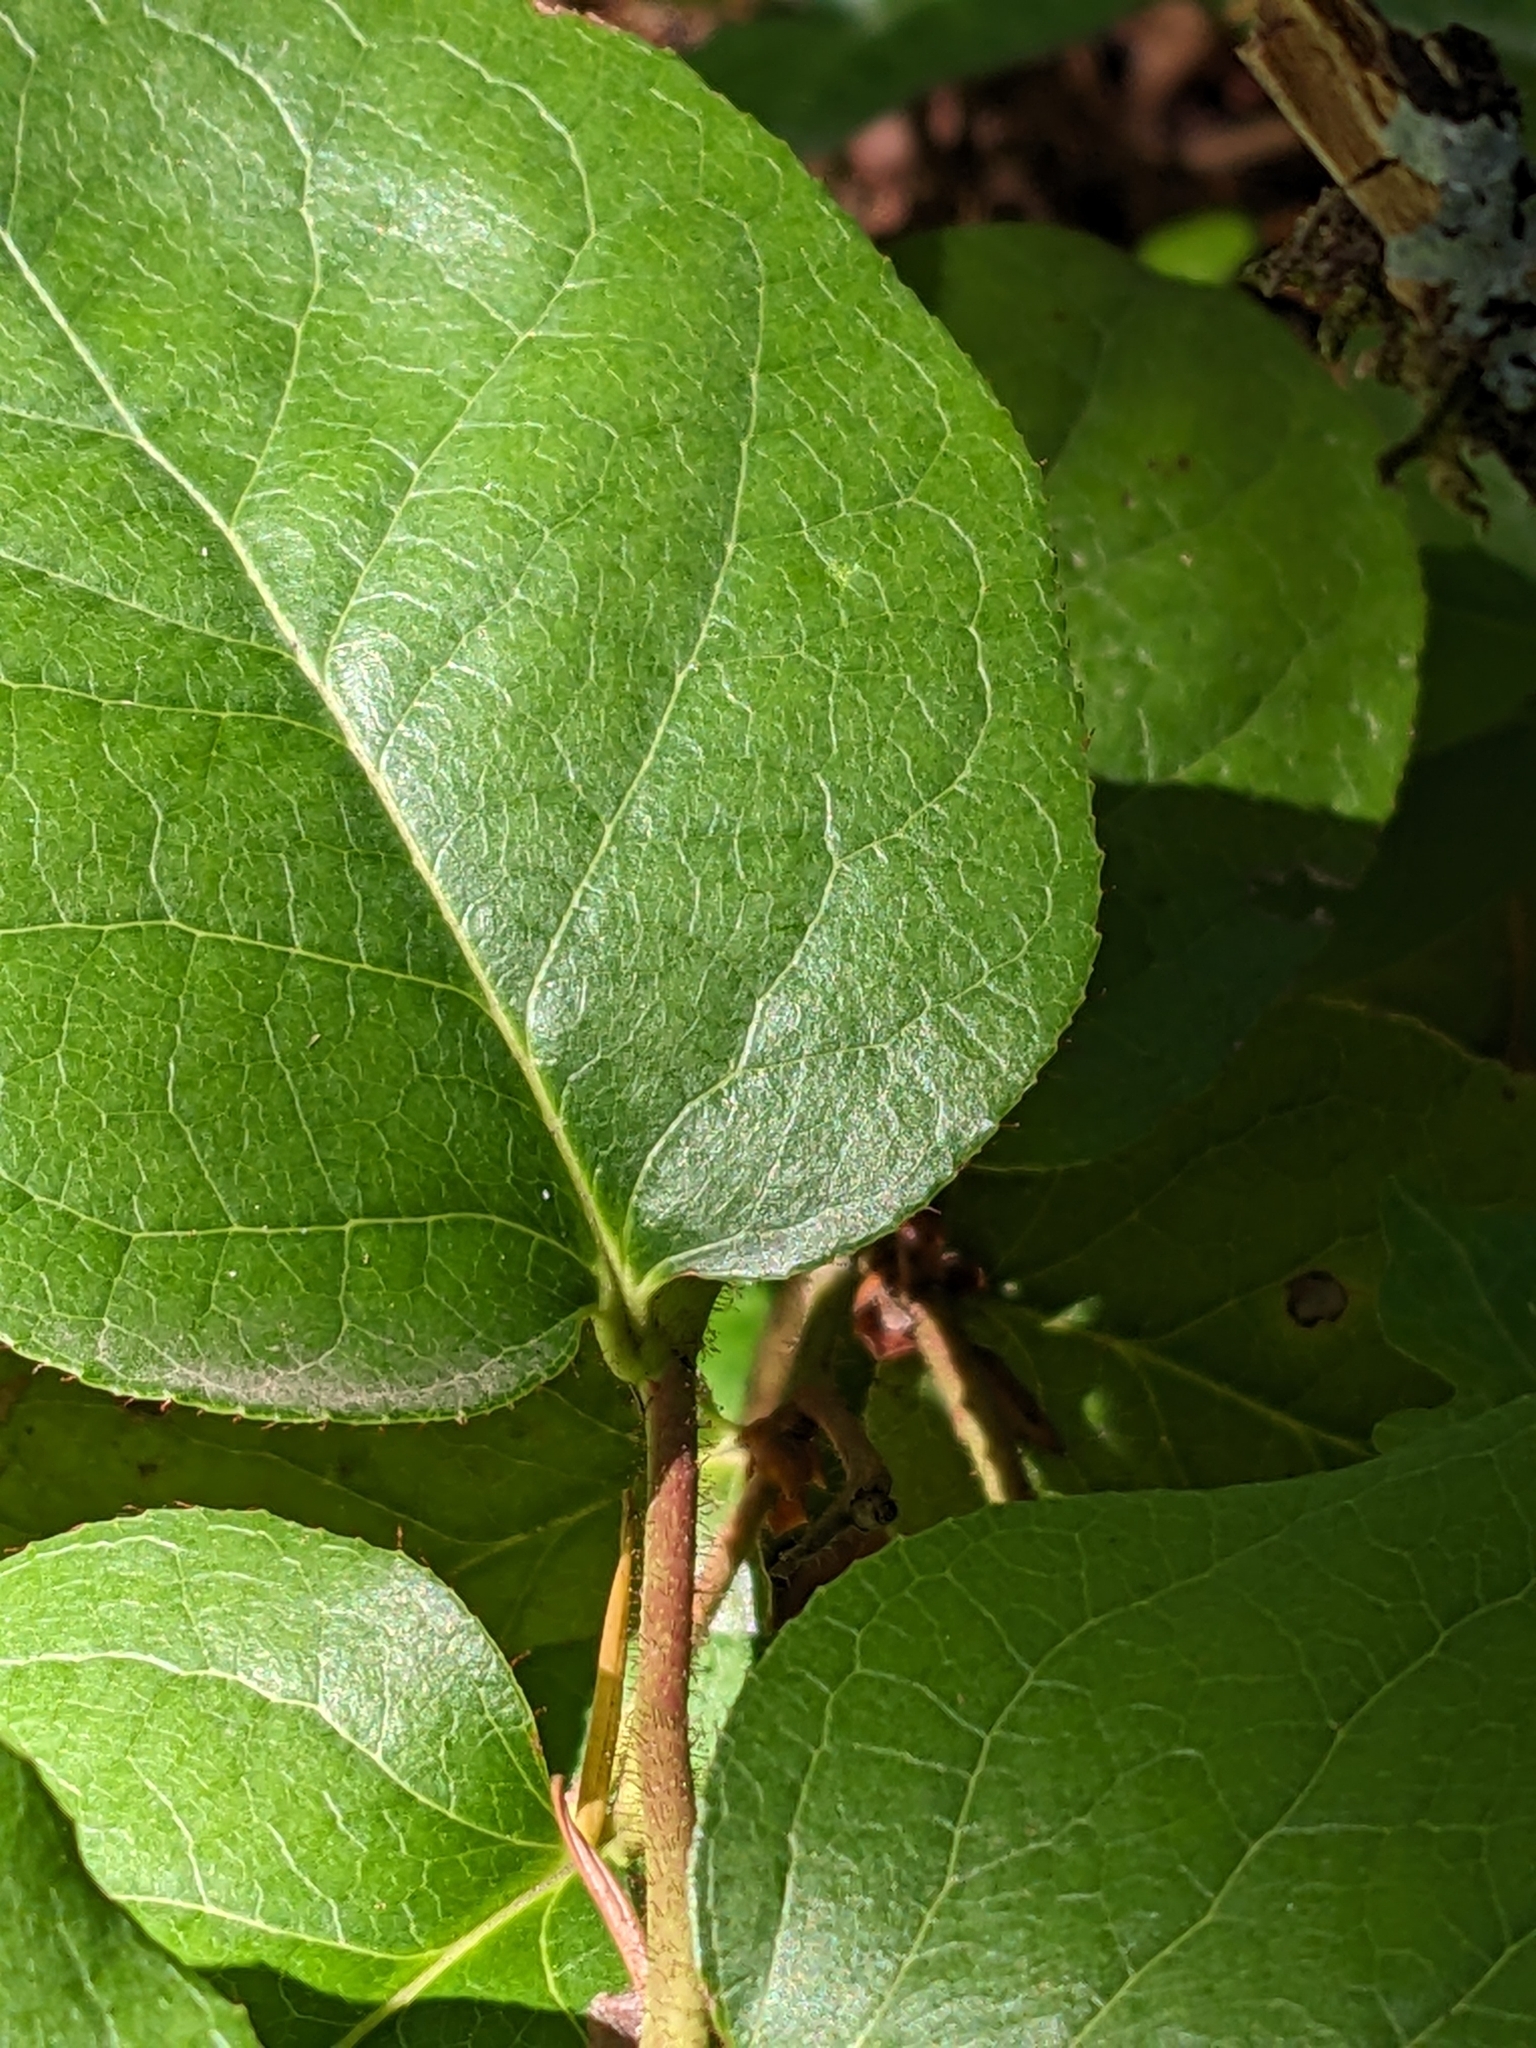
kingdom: Plantae
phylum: Tracheophyta
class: Magnoliopsida
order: Ericales
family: Ericaceae
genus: Gaultheria
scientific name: Gaultheria shallon
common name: Shallon
